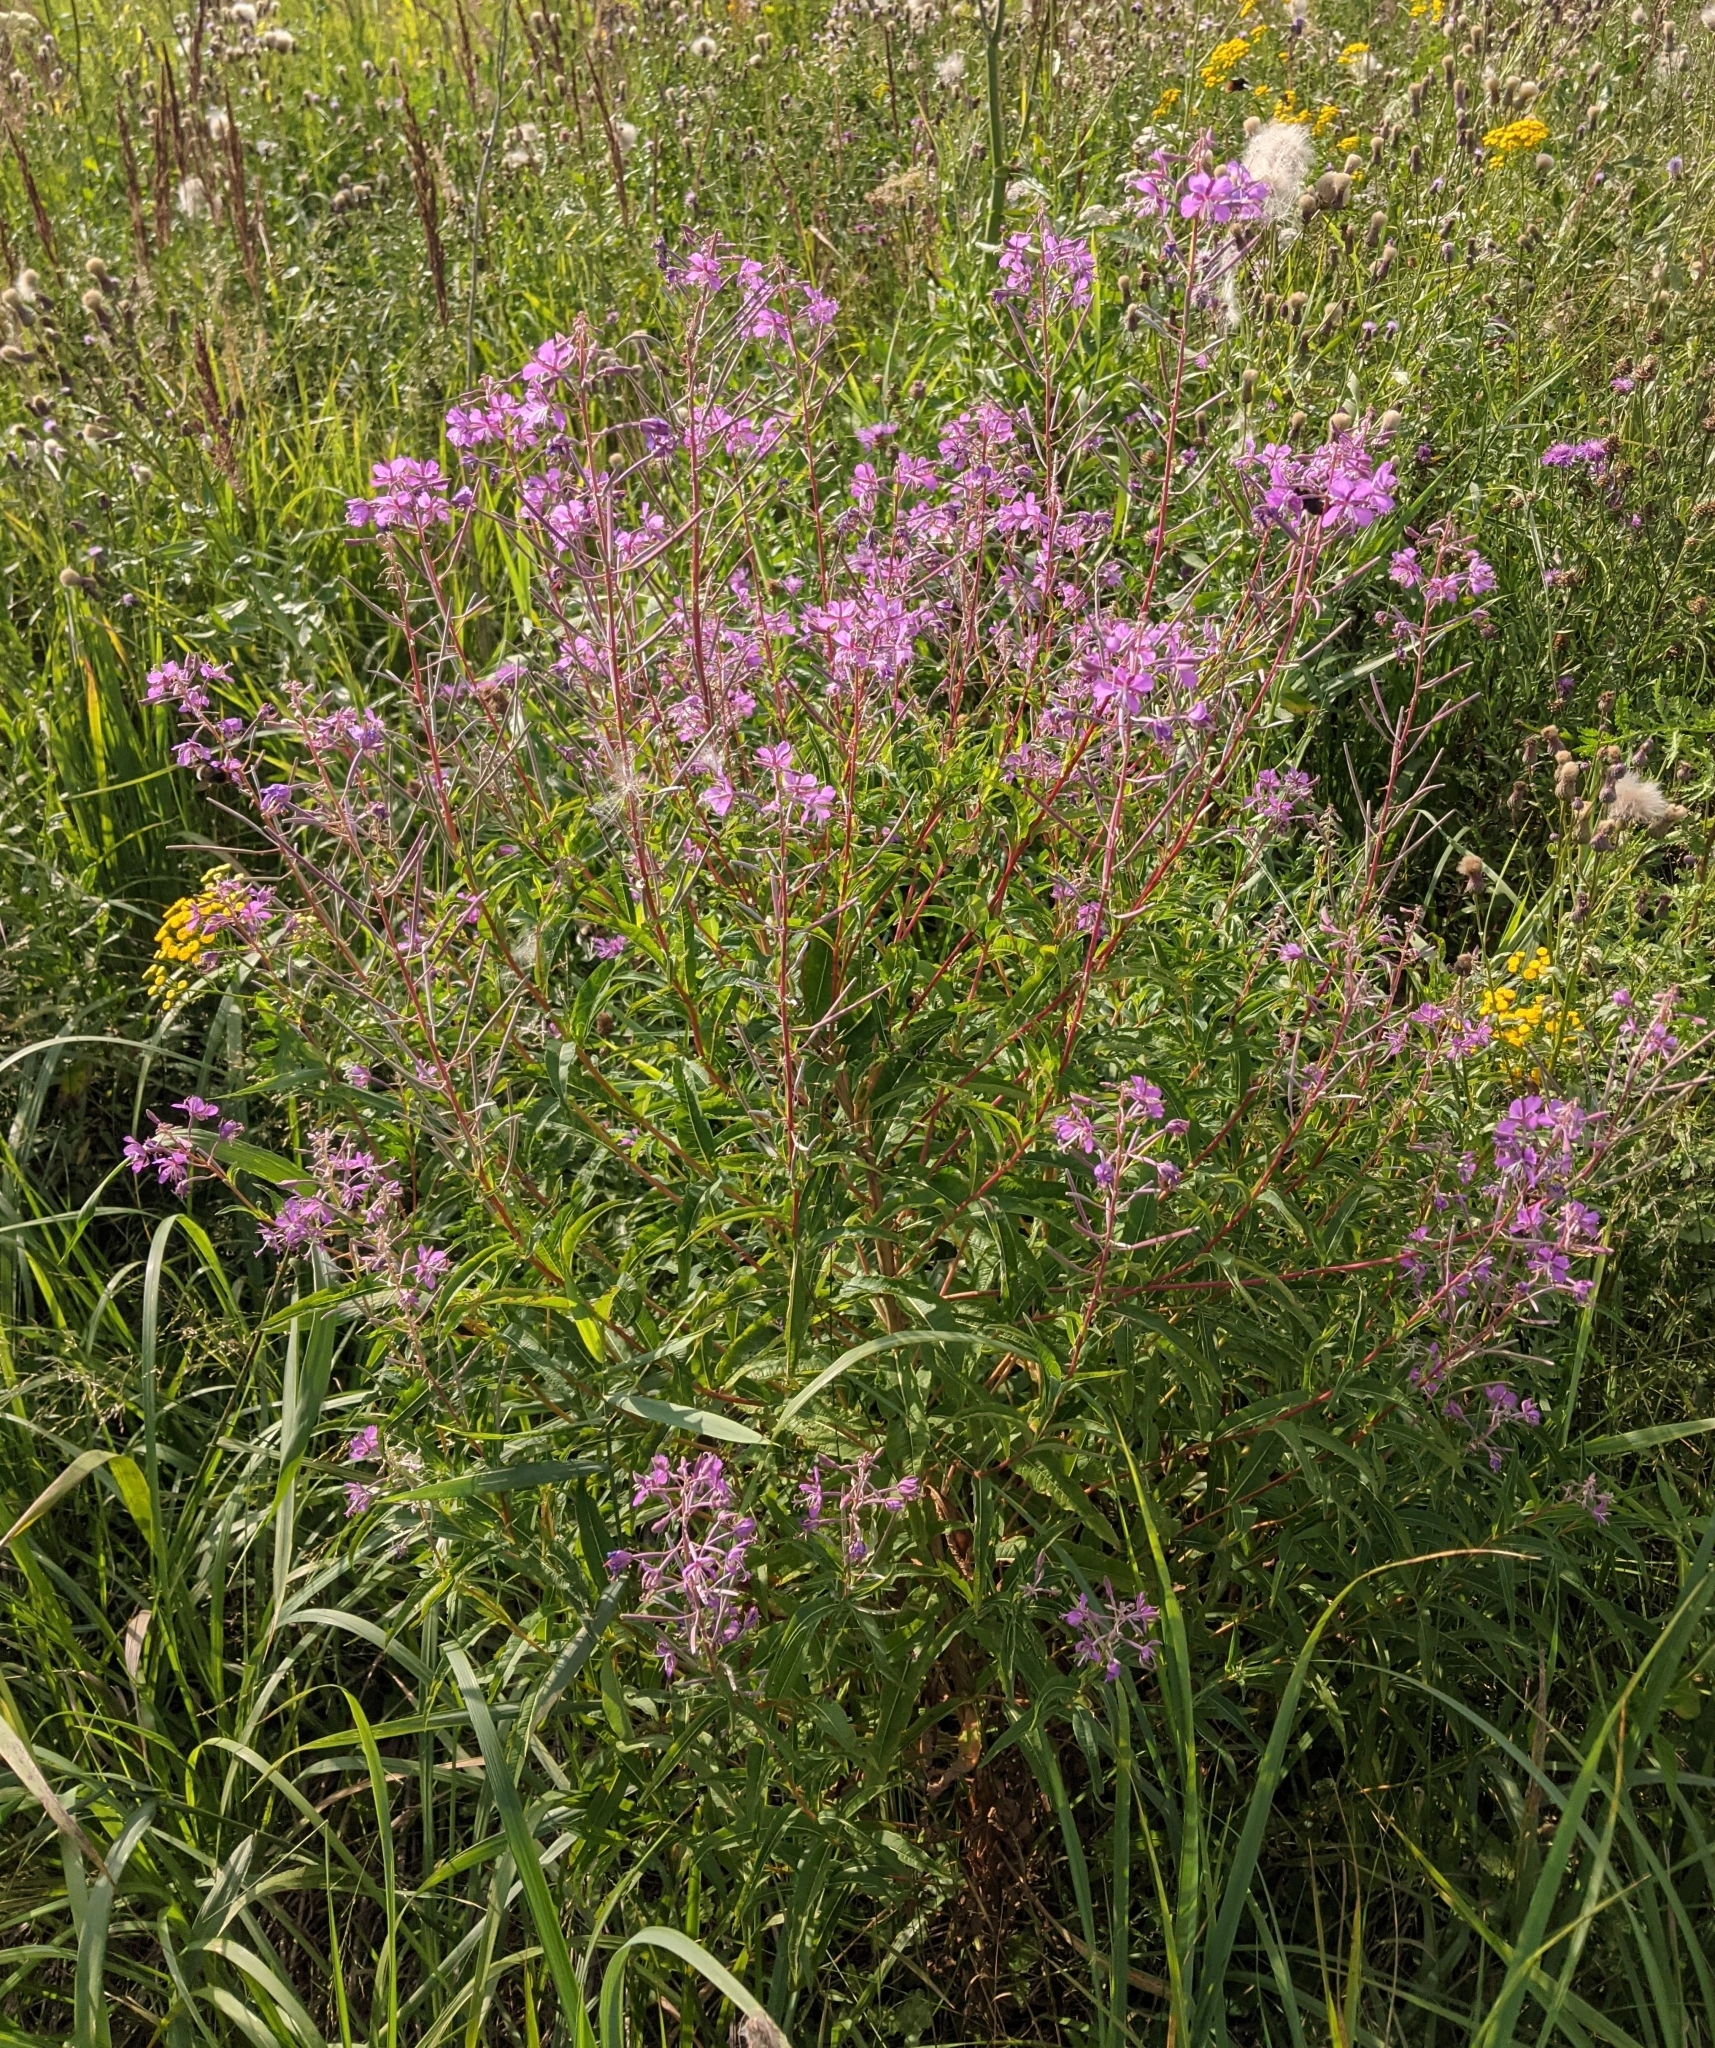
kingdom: Plantae
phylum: Tracheophyta
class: Magnoliopsida
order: Myrtales
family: Onagraceae
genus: Chamaenerion
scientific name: Chamaenerion angustifolium
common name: Fireweed
